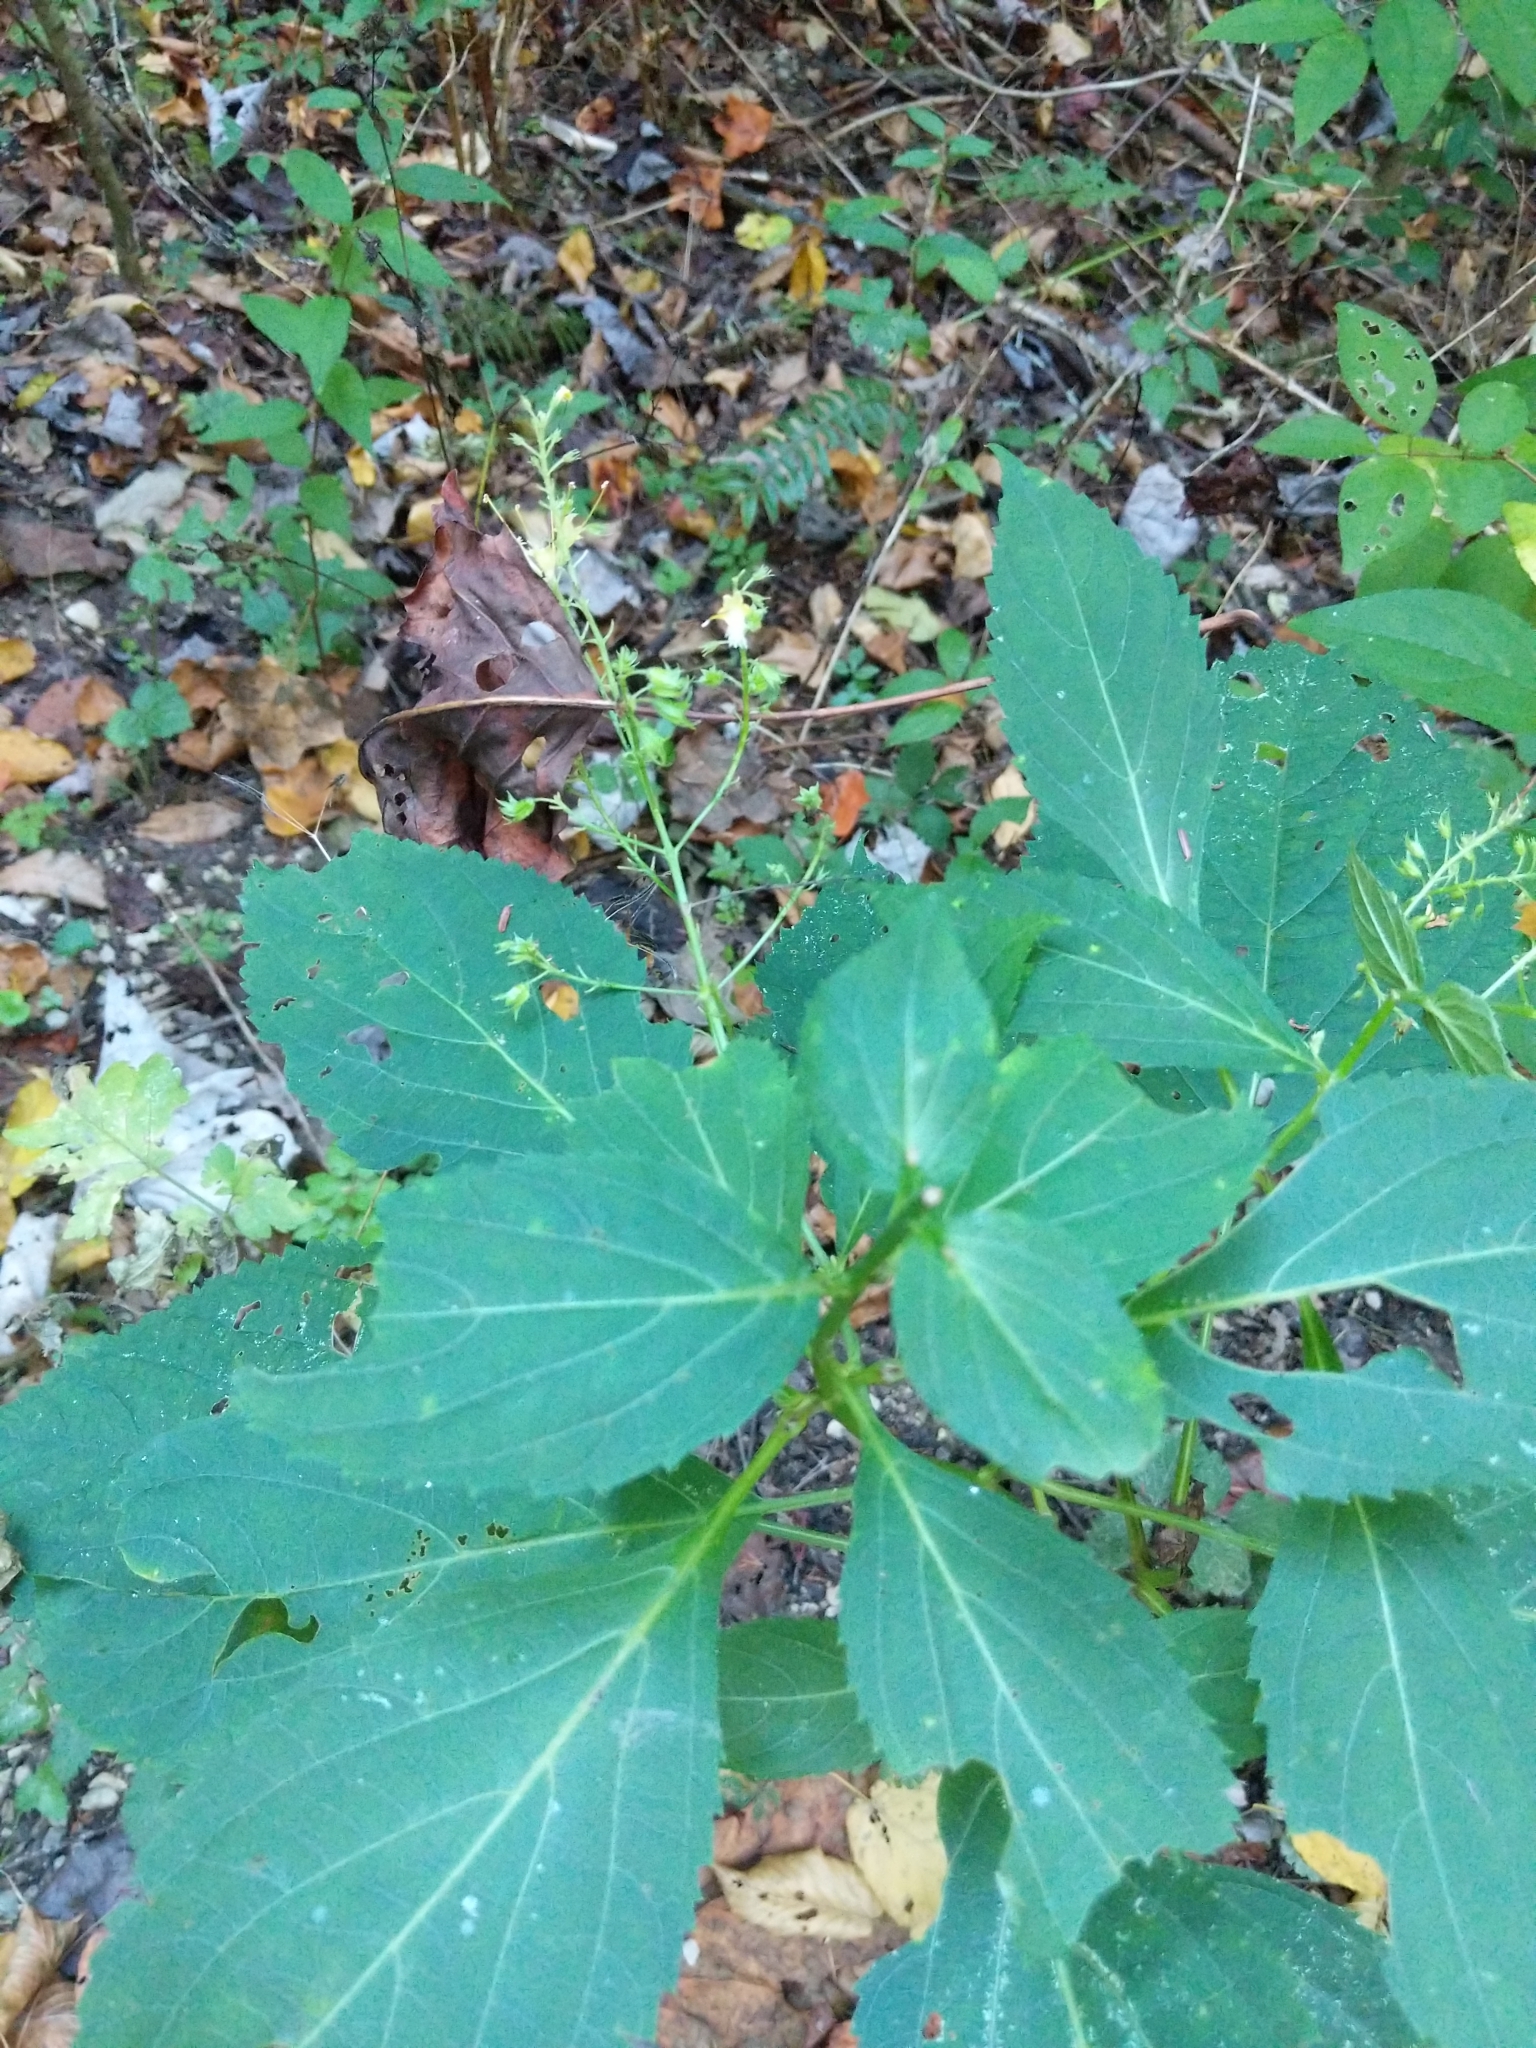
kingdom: Plantae
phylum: Tracheophyta
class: Magnoliopsida
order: Lamiales
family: Lamiaceae
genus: Collinsonia
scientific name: Collinsonia canadensis
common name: Northern horsebalm
